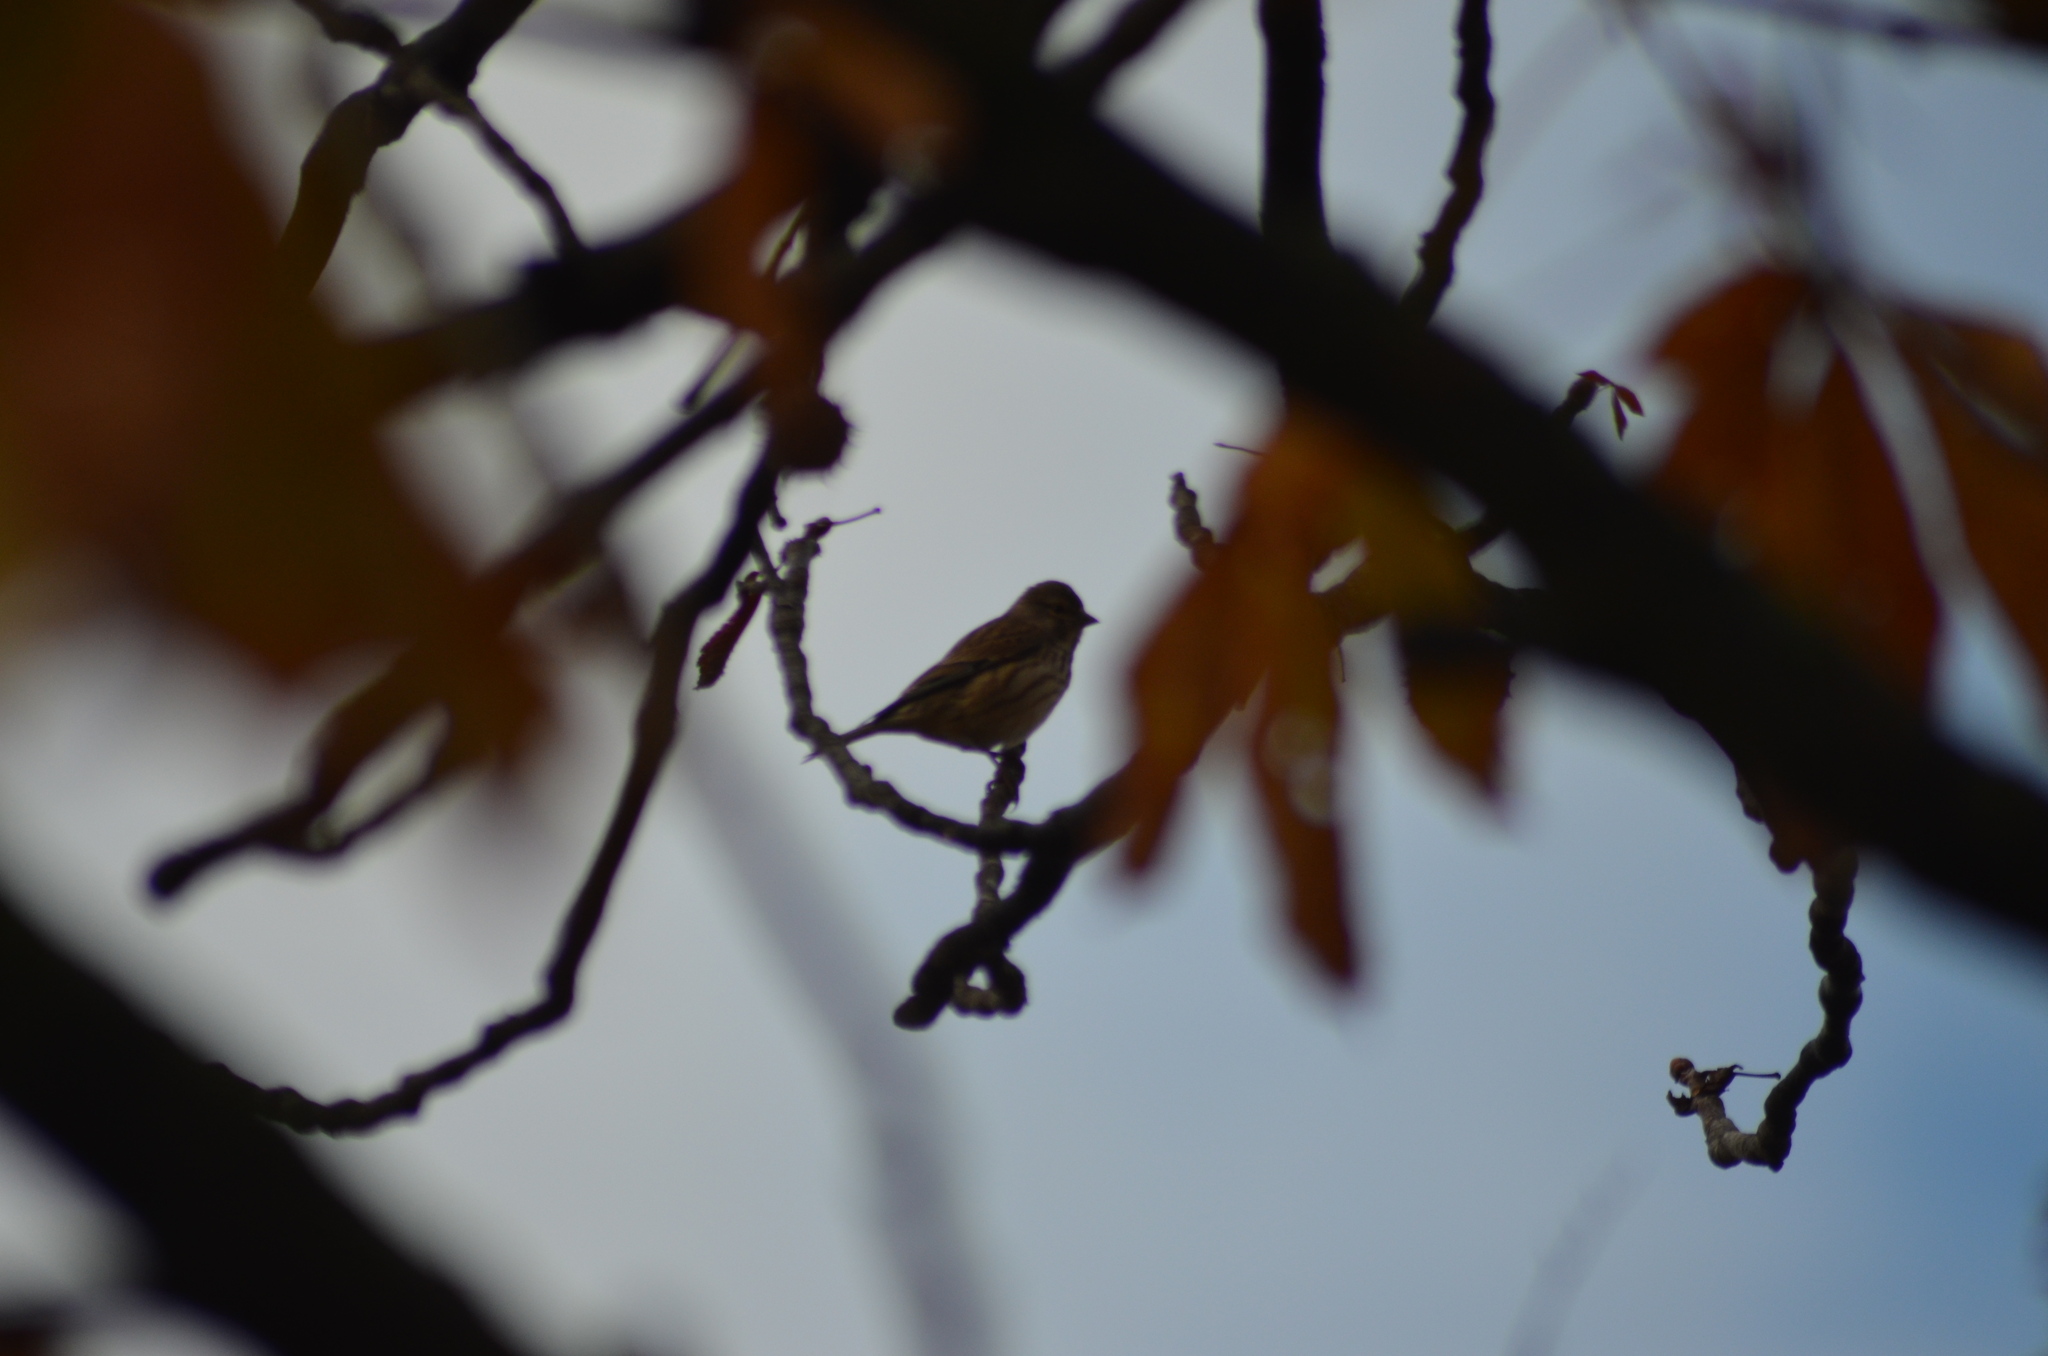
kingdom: Animalia
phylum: Chordata
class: Aves
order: Passeriformes
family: Fringillidae
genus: Linaria
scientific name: Linaria cannabina
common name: Common linnet
